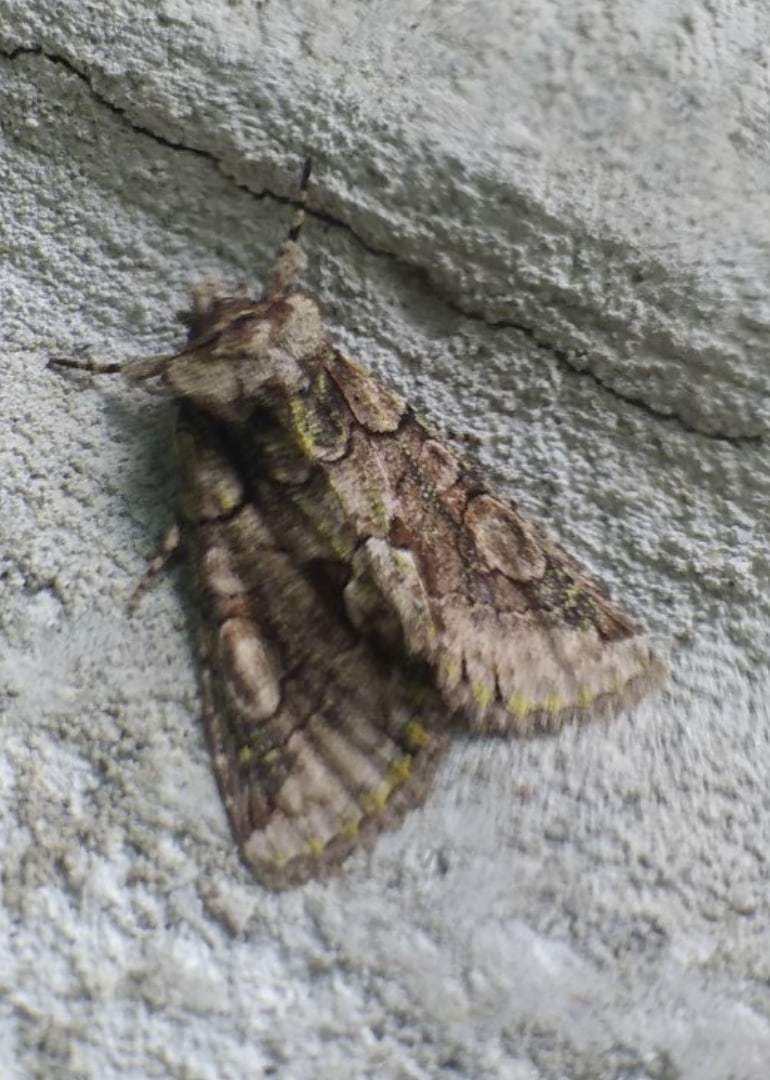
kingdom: Animalia
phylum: Arthropoda
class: Insecta
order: Lepidoptera
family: Noctuidae
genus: Allophyes
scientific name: Allophyes oxyacanthae
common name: Green-brindled crescent
